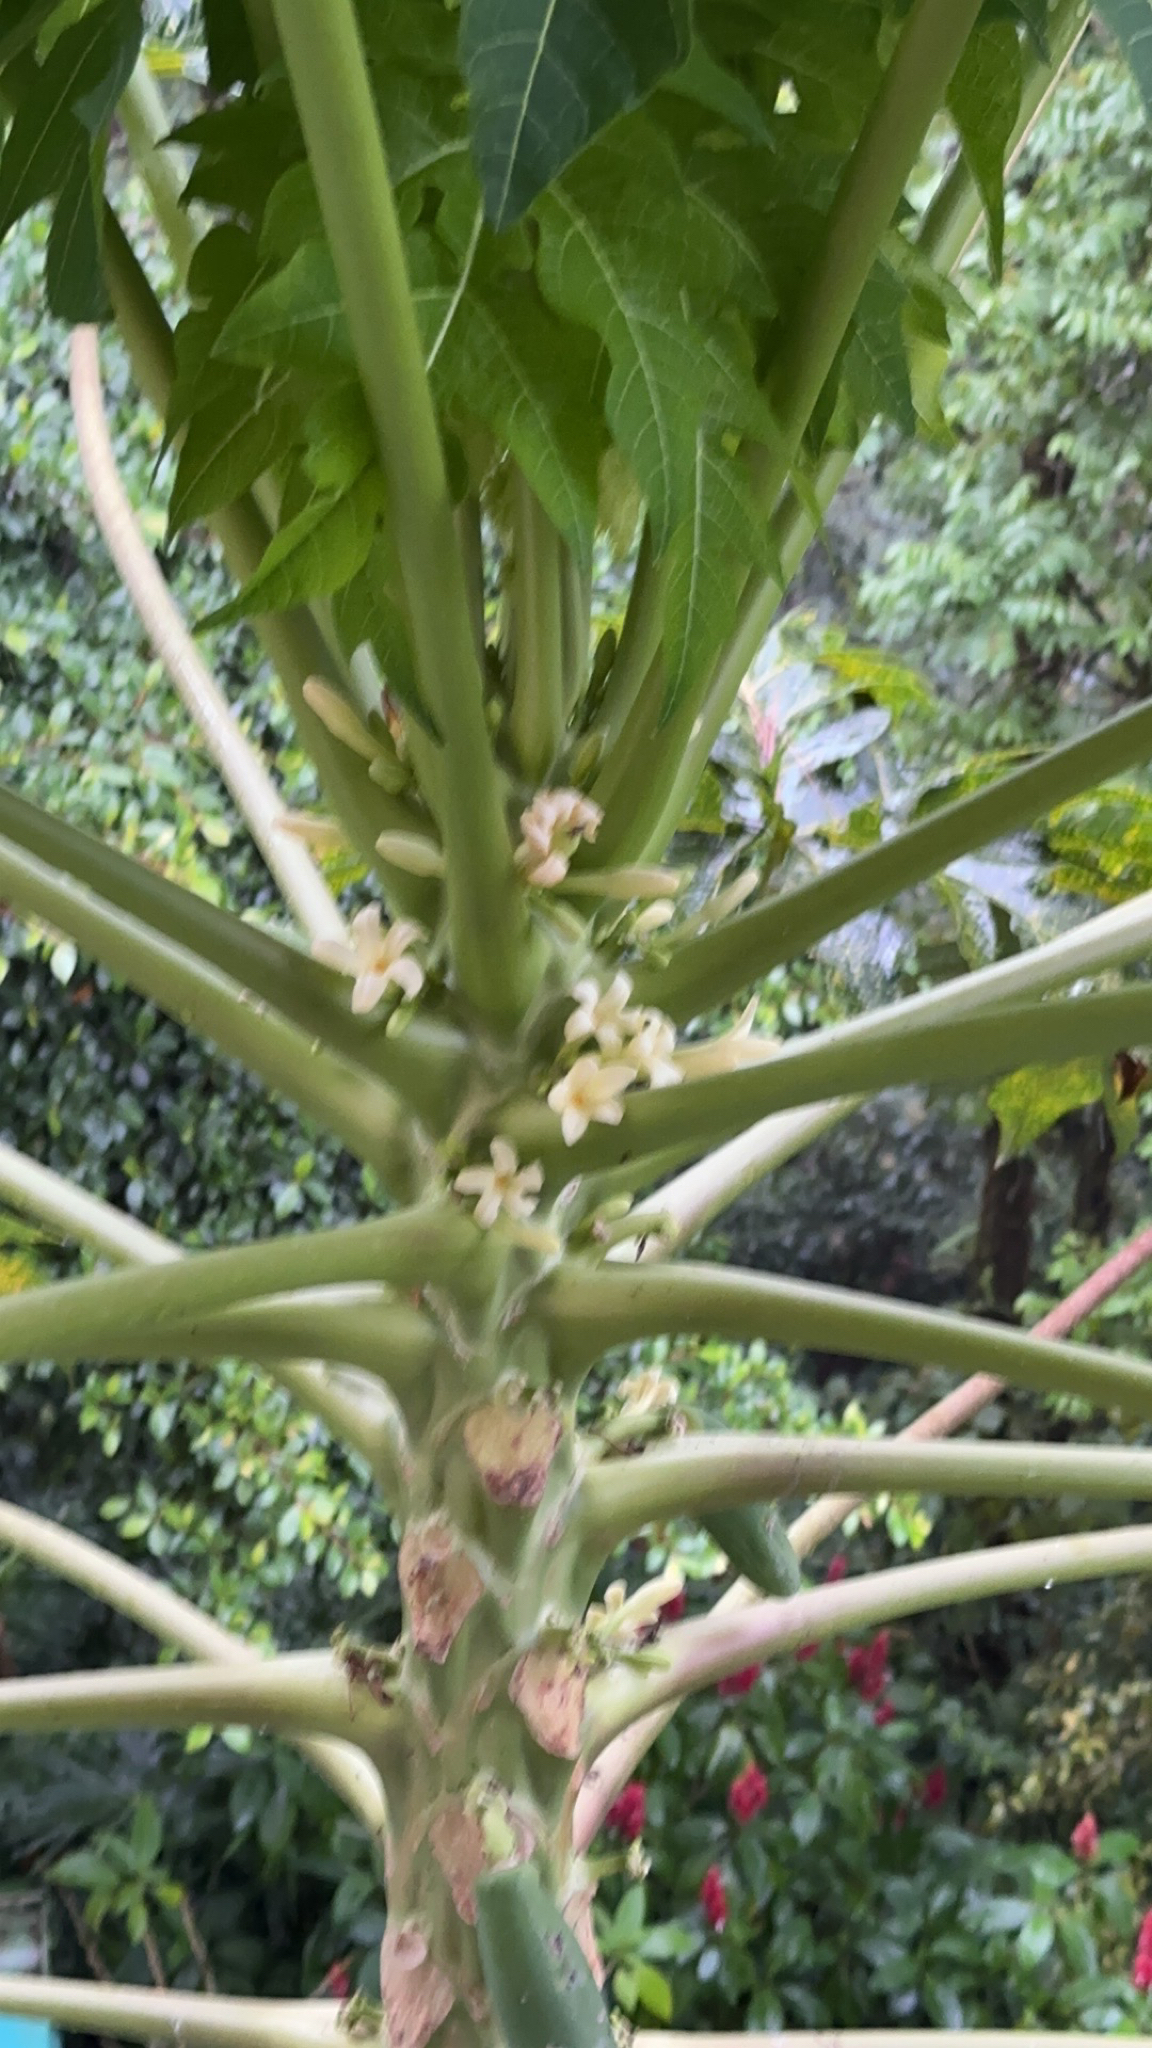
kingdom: Plantae
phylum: Tracheophyta
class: Magnoliopsida
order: Brassicales
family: Caricaceae
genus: Carica
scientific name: Carica papaya
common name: Papaya
